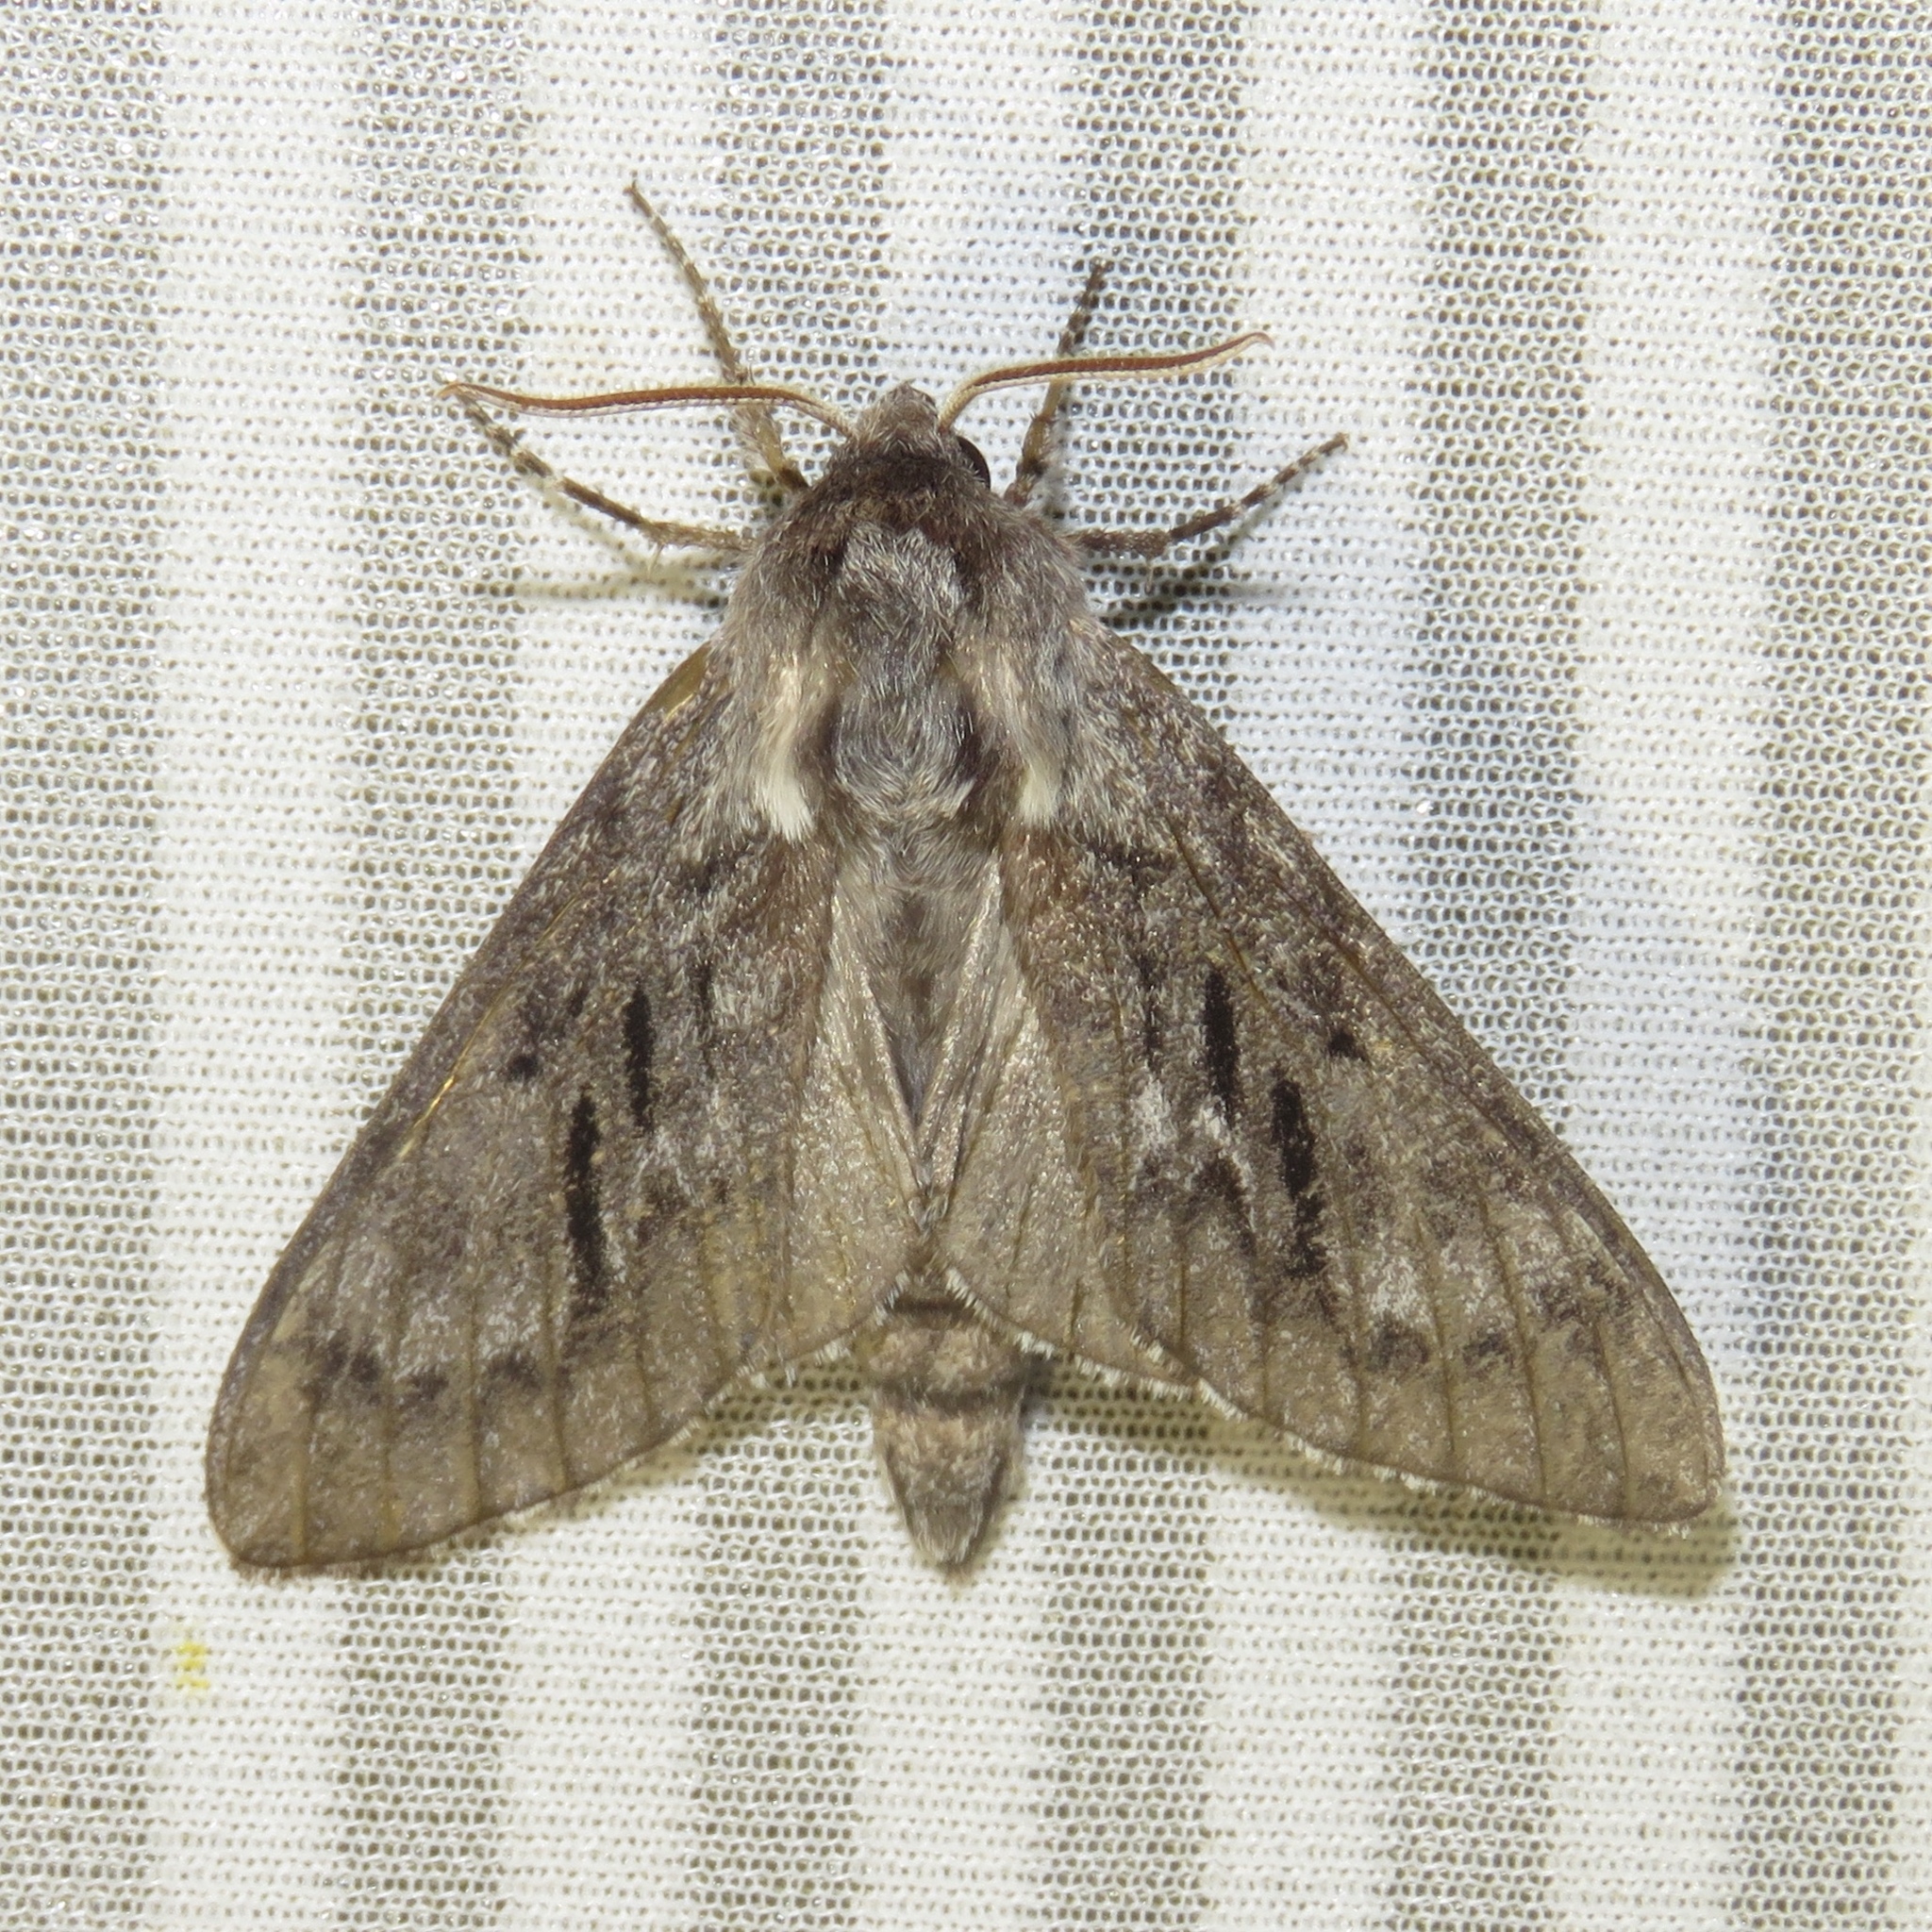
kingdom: Animalia
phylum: Arthropoda
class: Insecta
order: Lepidoptera
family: Sphingidae
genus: Lapara
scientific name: Lapara bombycoides
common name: Northern pine sphinx
